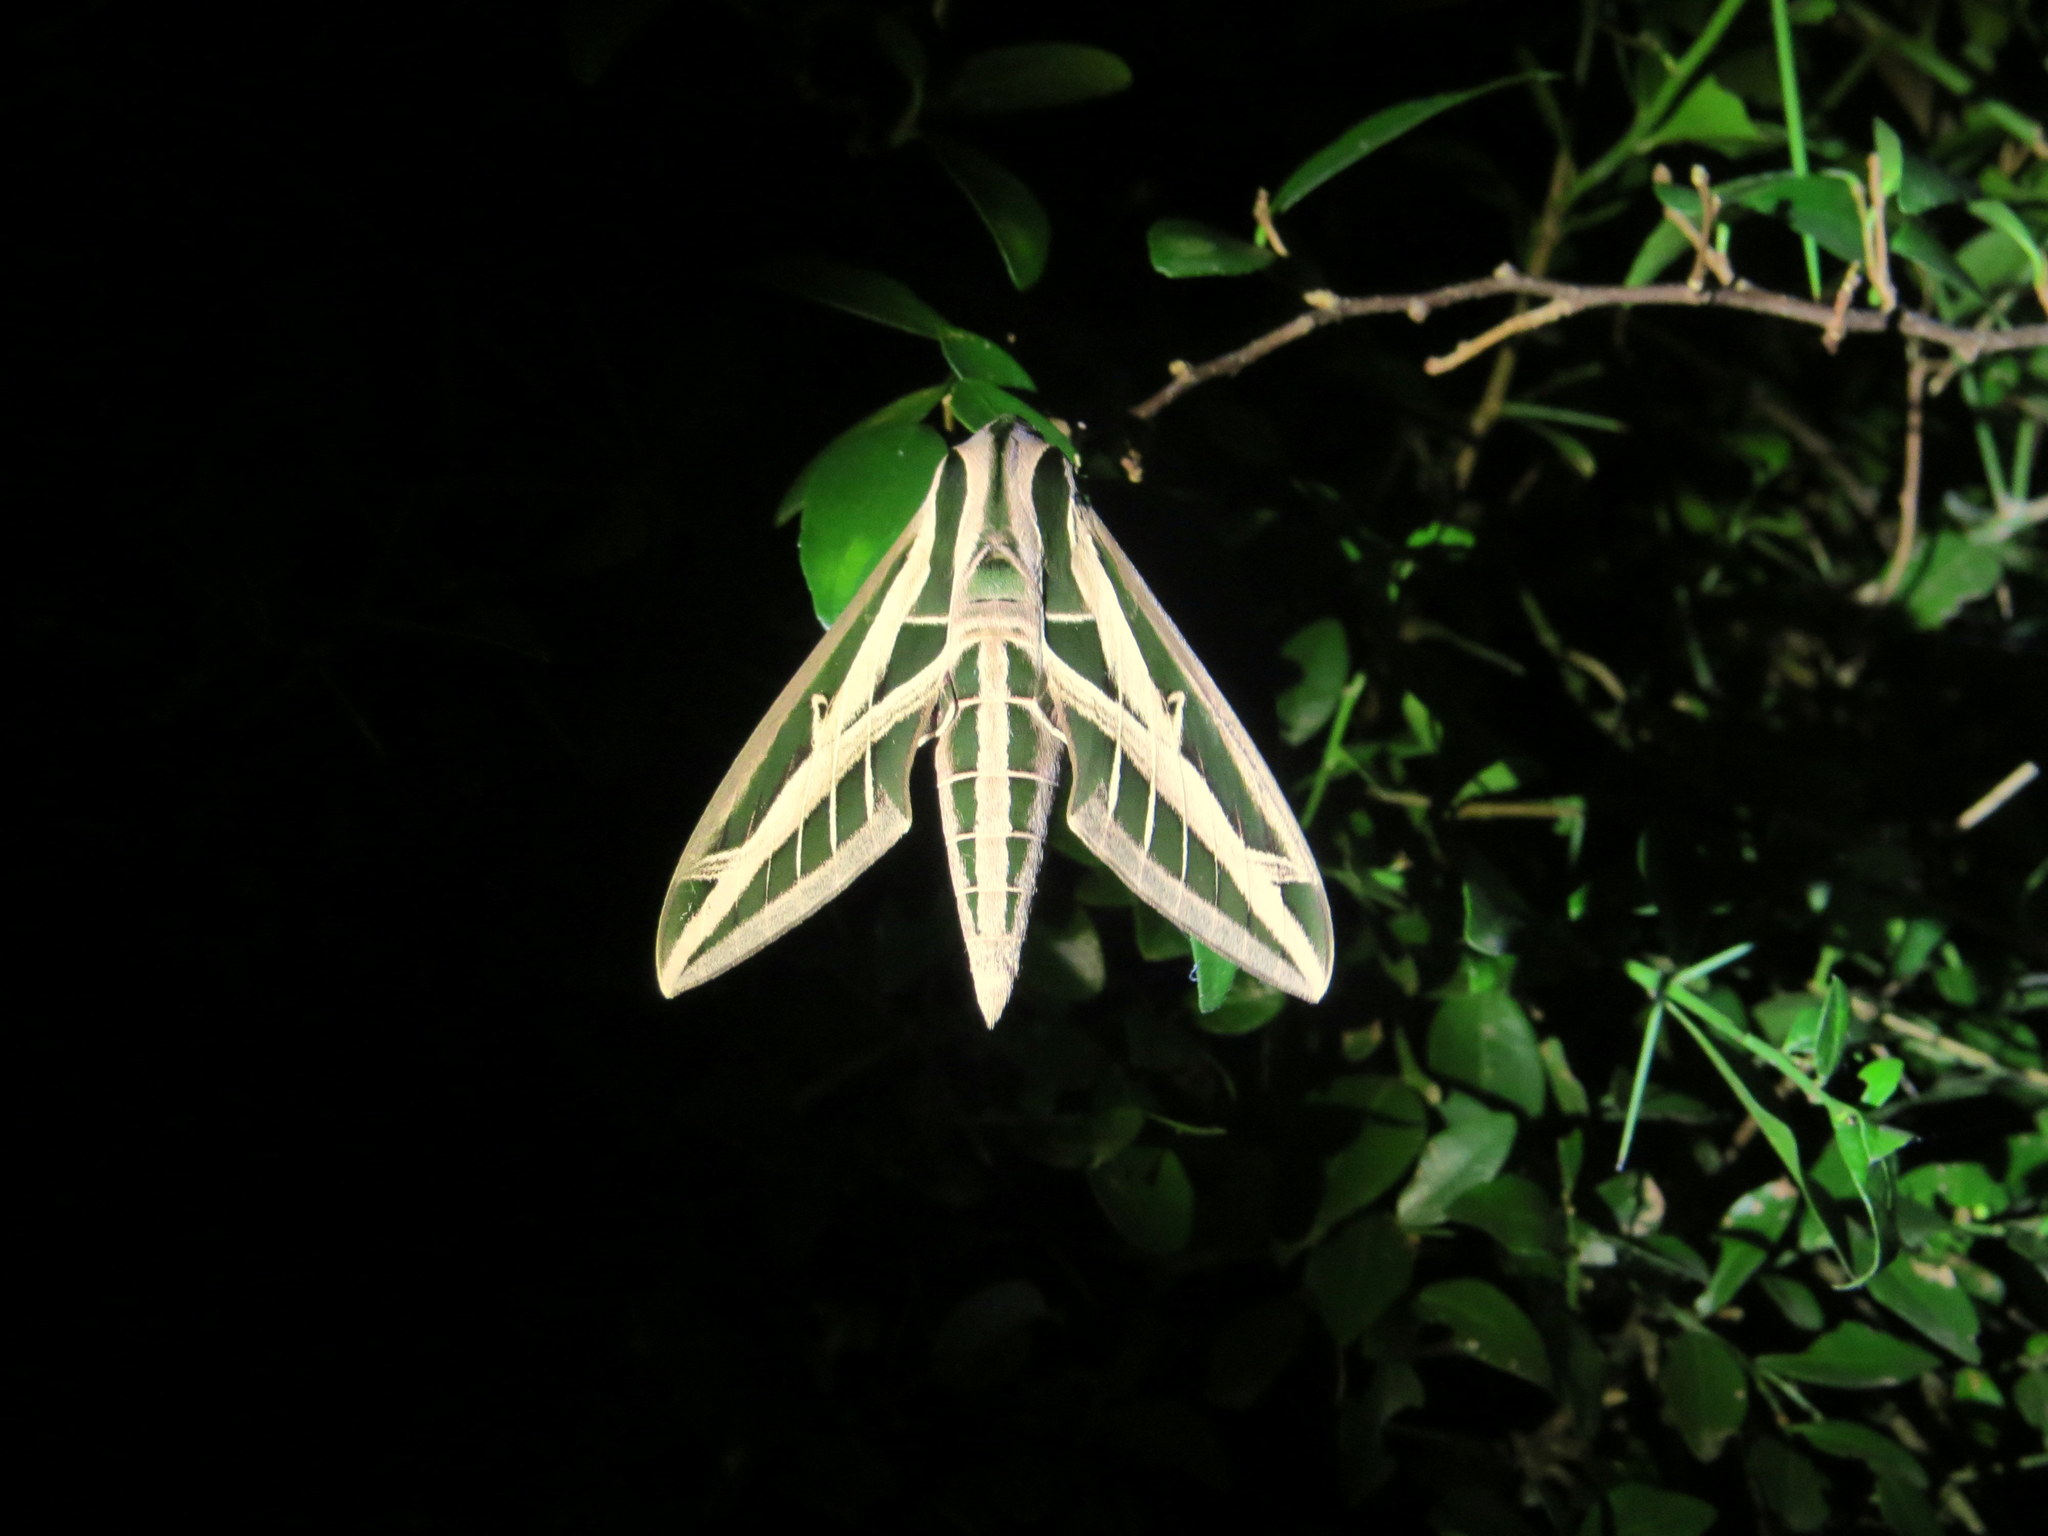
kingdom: Animalia
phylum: Arthropoda
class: Insecta
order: Lepidoptera
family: Sphingidae
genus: Eumorpha
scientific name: Eumorpha fasciatus
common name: Banded sphinx
